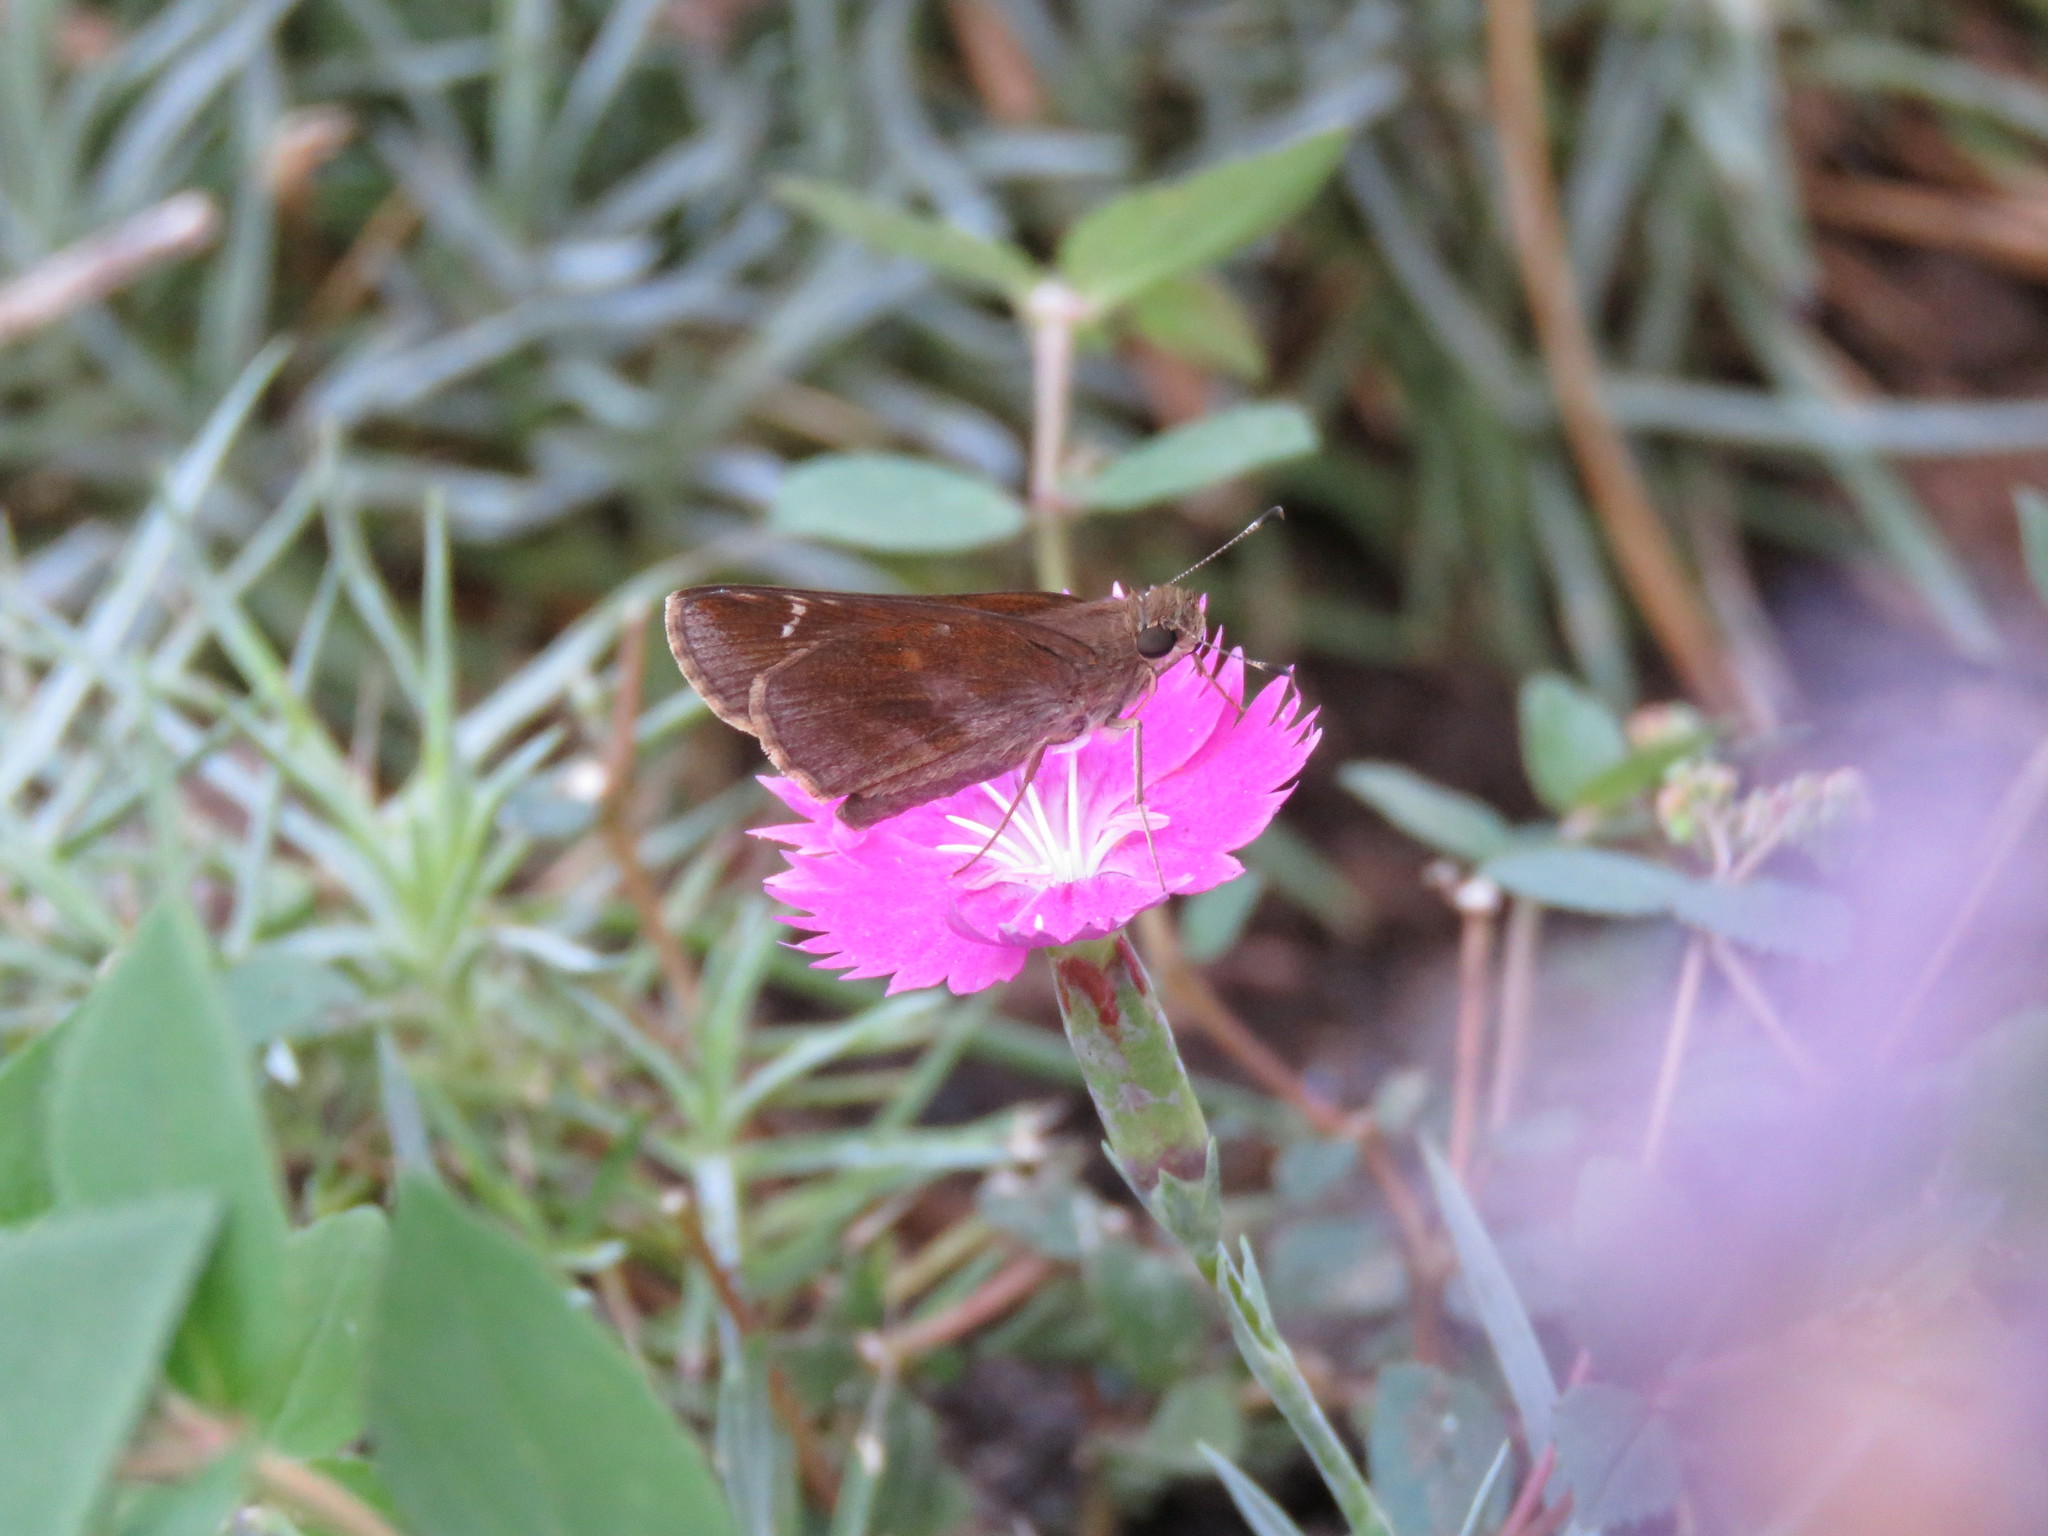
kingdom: Animalia
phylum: Arthropoda
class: Insecta
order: Lepidoptera
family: Hesperiidae
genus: Lerema
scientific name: Lerema accius
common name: Clouded skipper
